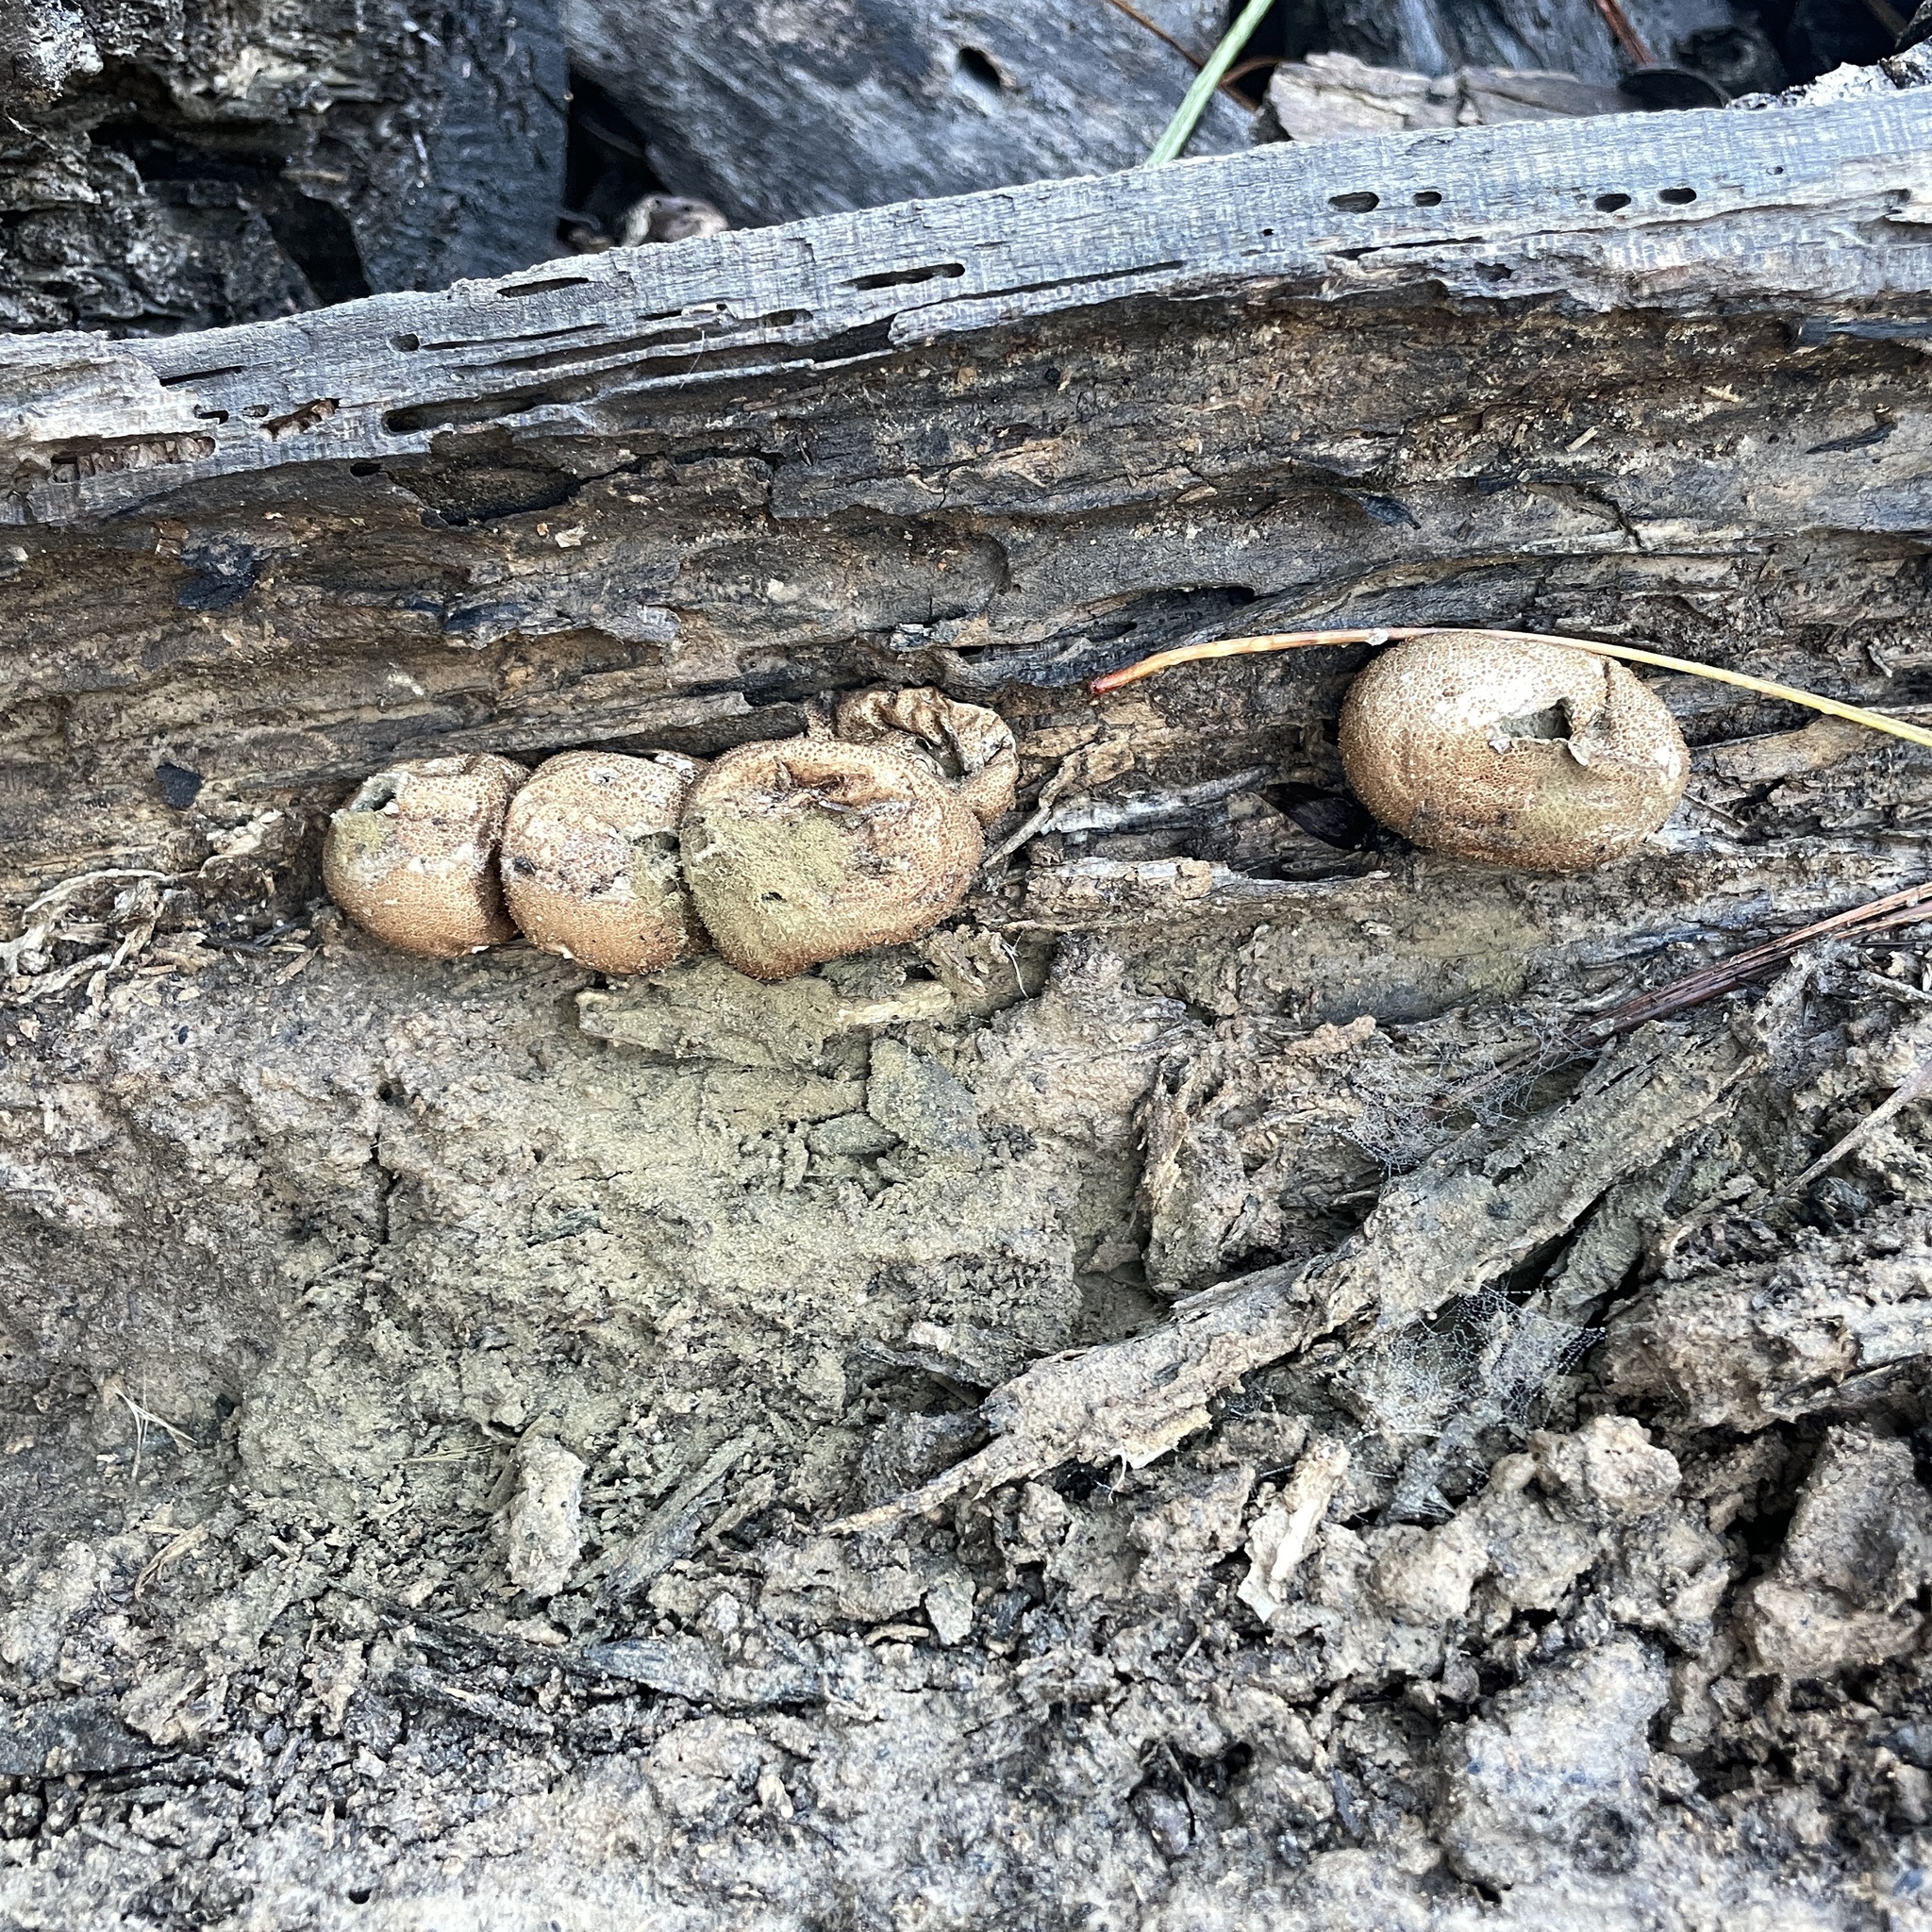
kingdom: Fungi
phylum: Basidiomycota
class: Agaricomycetes
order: Agaricales
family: Lycoperdaceae
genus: Apioperdon
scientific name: Apioperdon pyriforme
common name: Pear-shaped puffball
